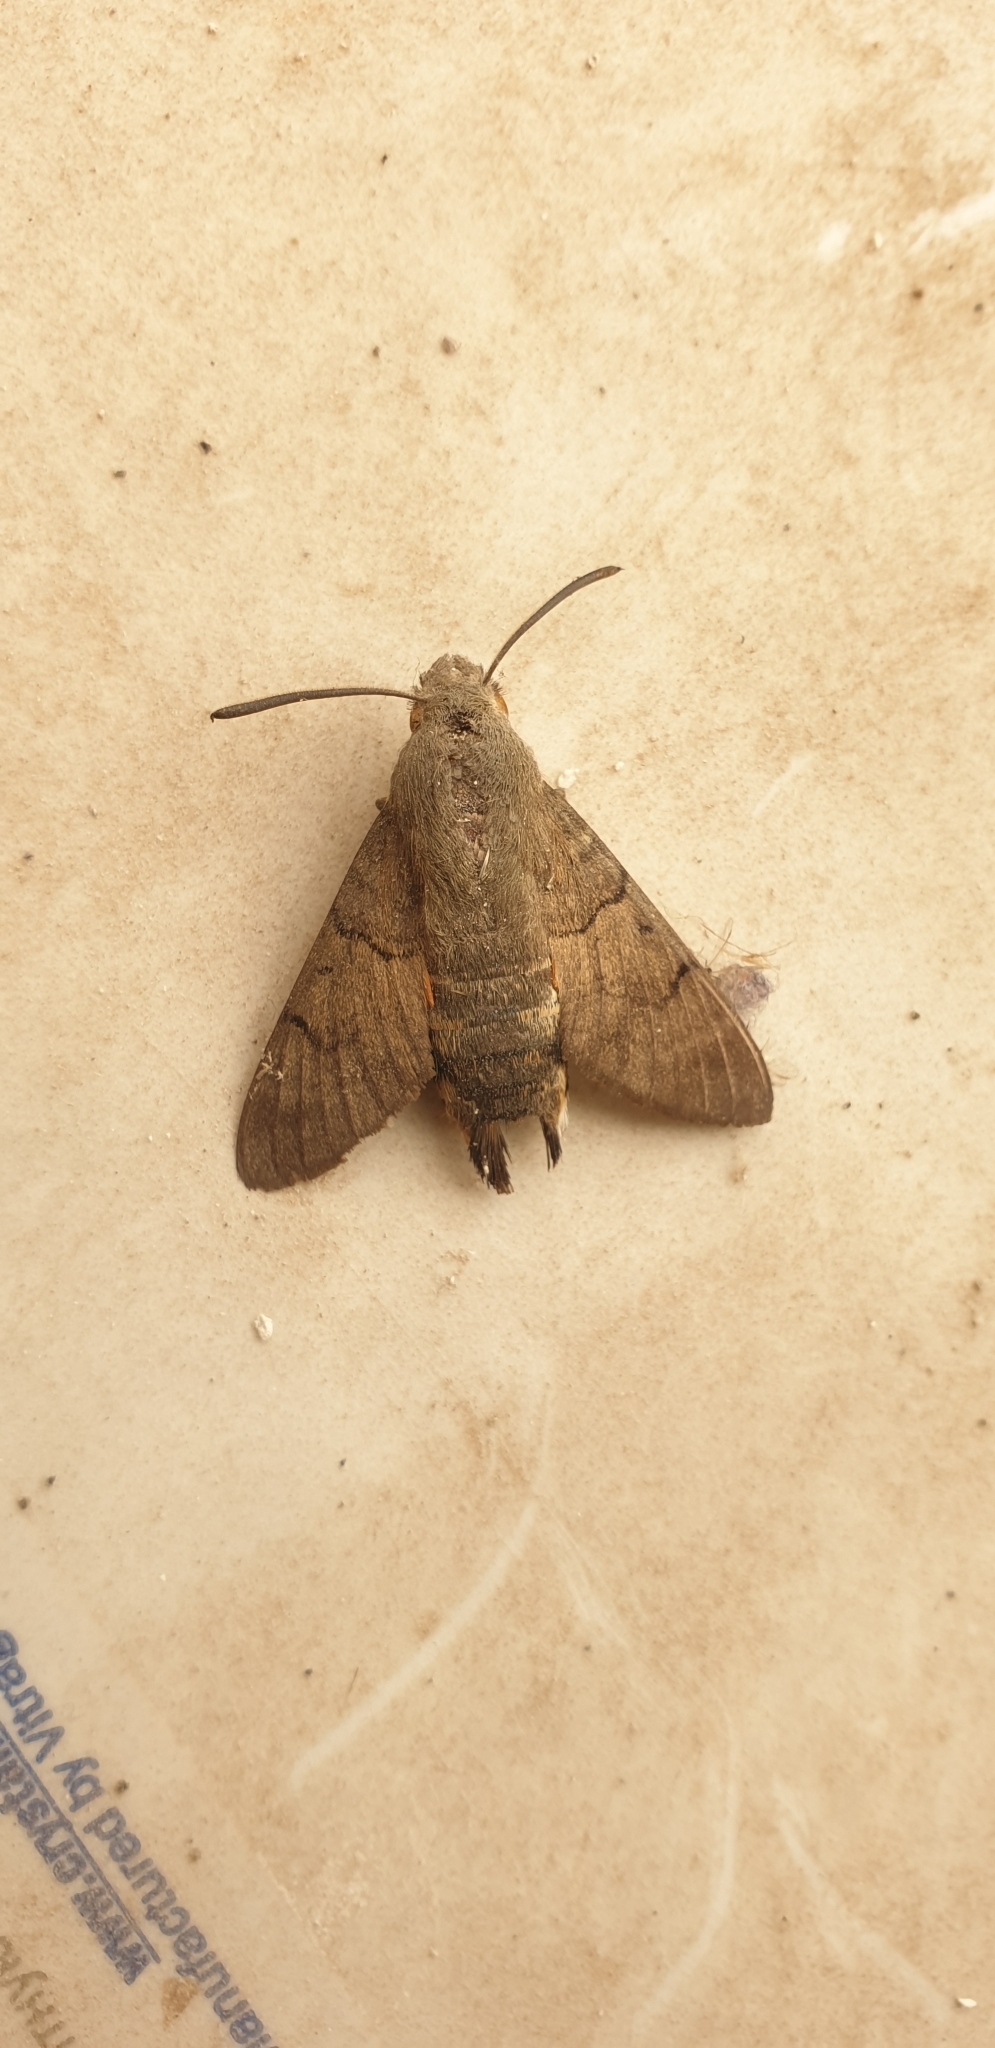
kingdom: Animalia
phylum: Arthropoda
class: Insecta
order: Lepidoptera
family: Sphingidae
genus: Macroglossum
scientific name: Macroglossum stellatarum
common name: Humming-bird hawk-moth
